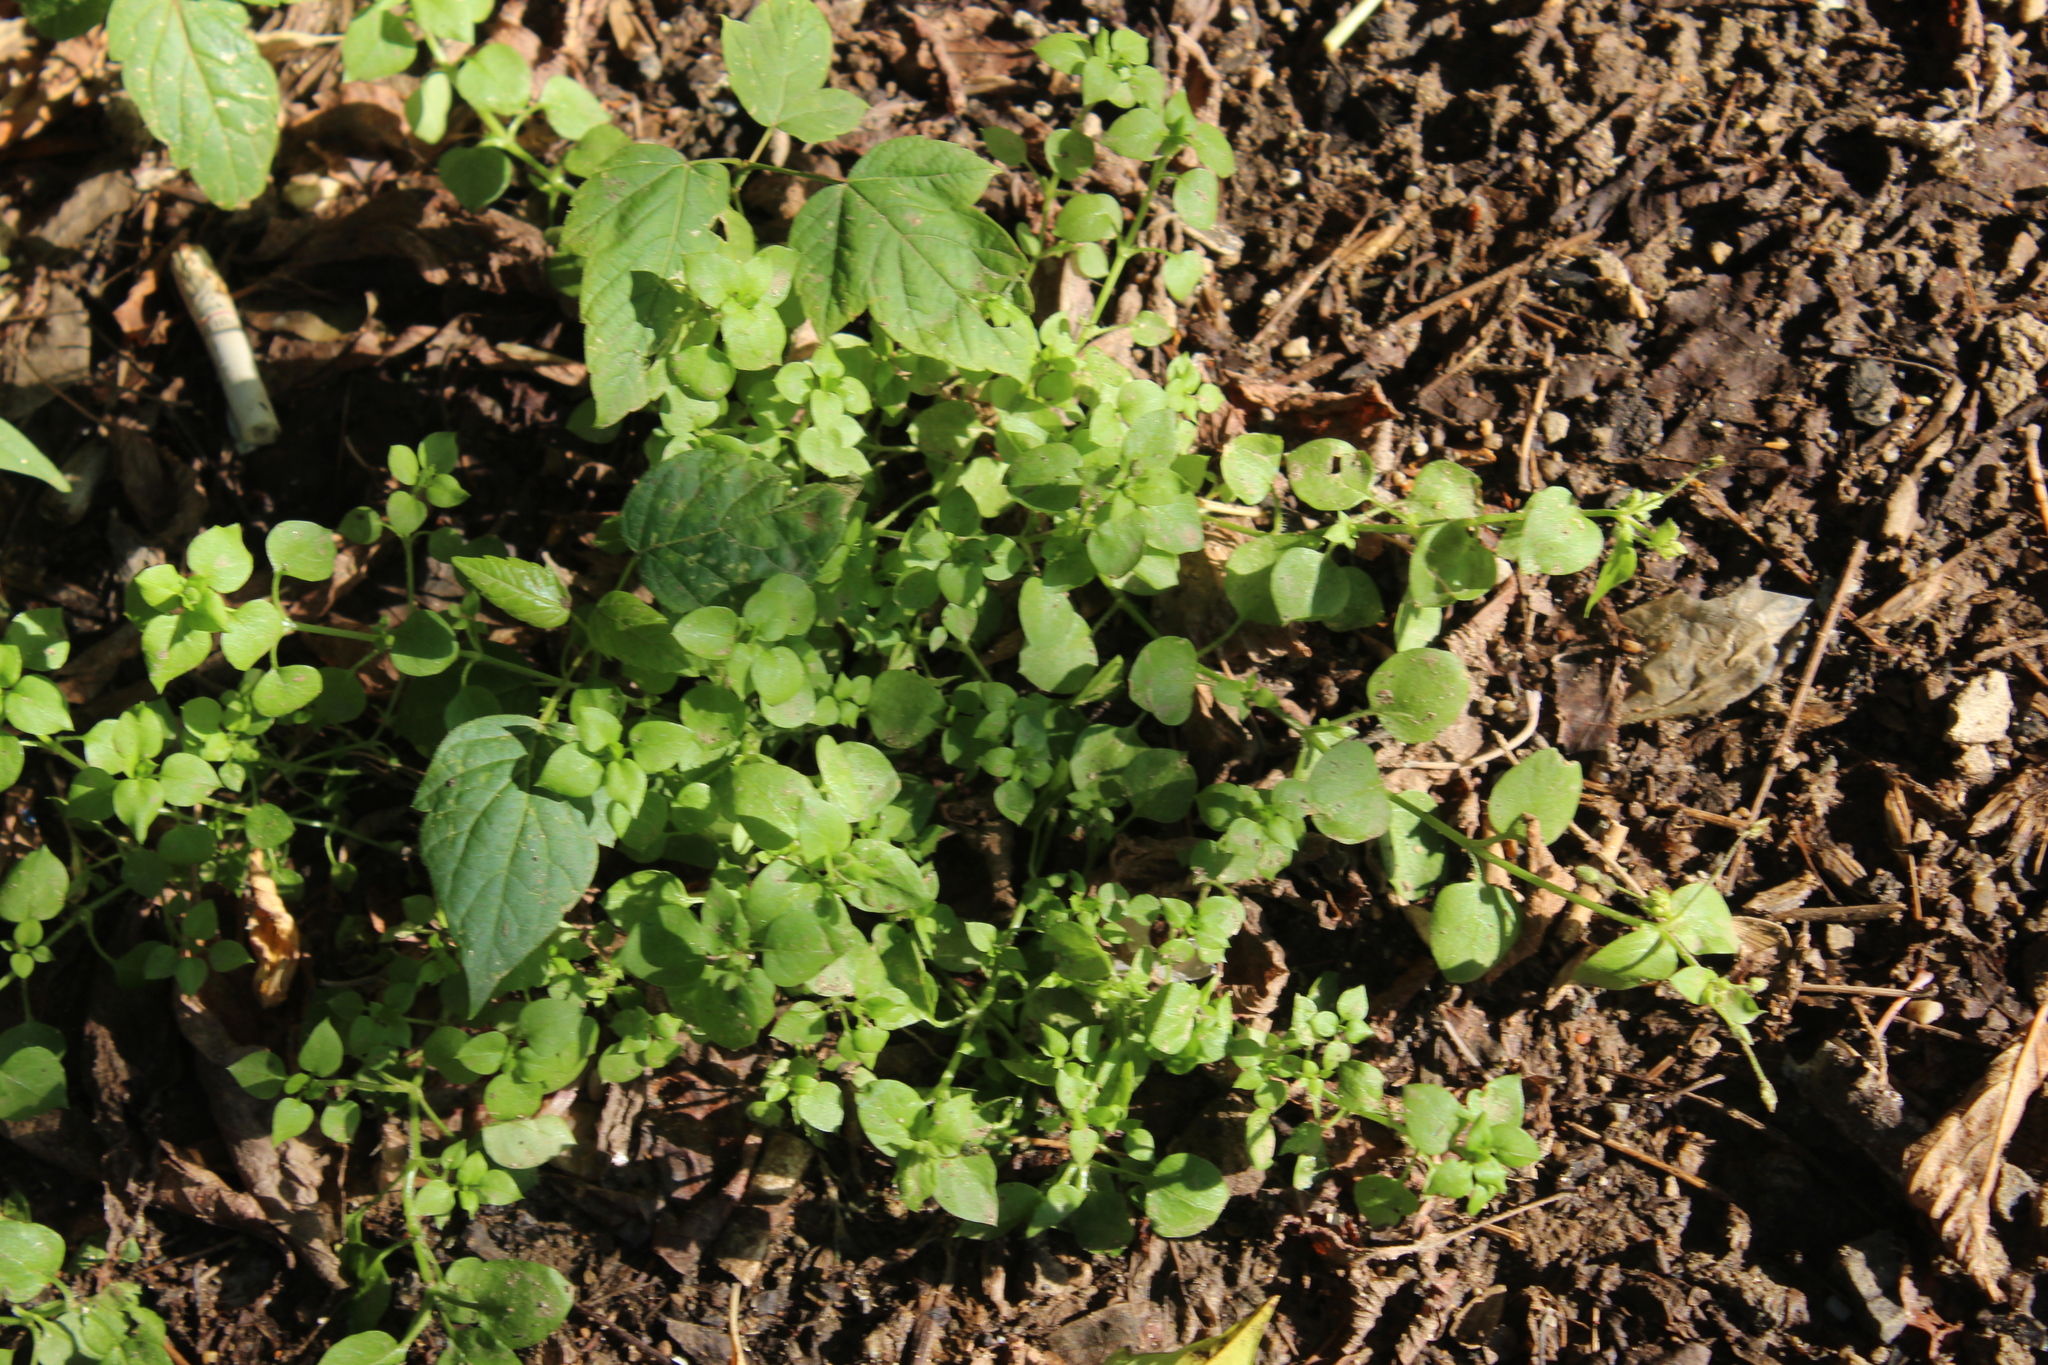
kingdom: Plantae
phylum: Tracheophyta
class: Magnoliopsida
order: Caryophyllales
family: Caryophyllaceae
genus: Stellaria
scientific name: Stellaria media
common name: Common chickweed
